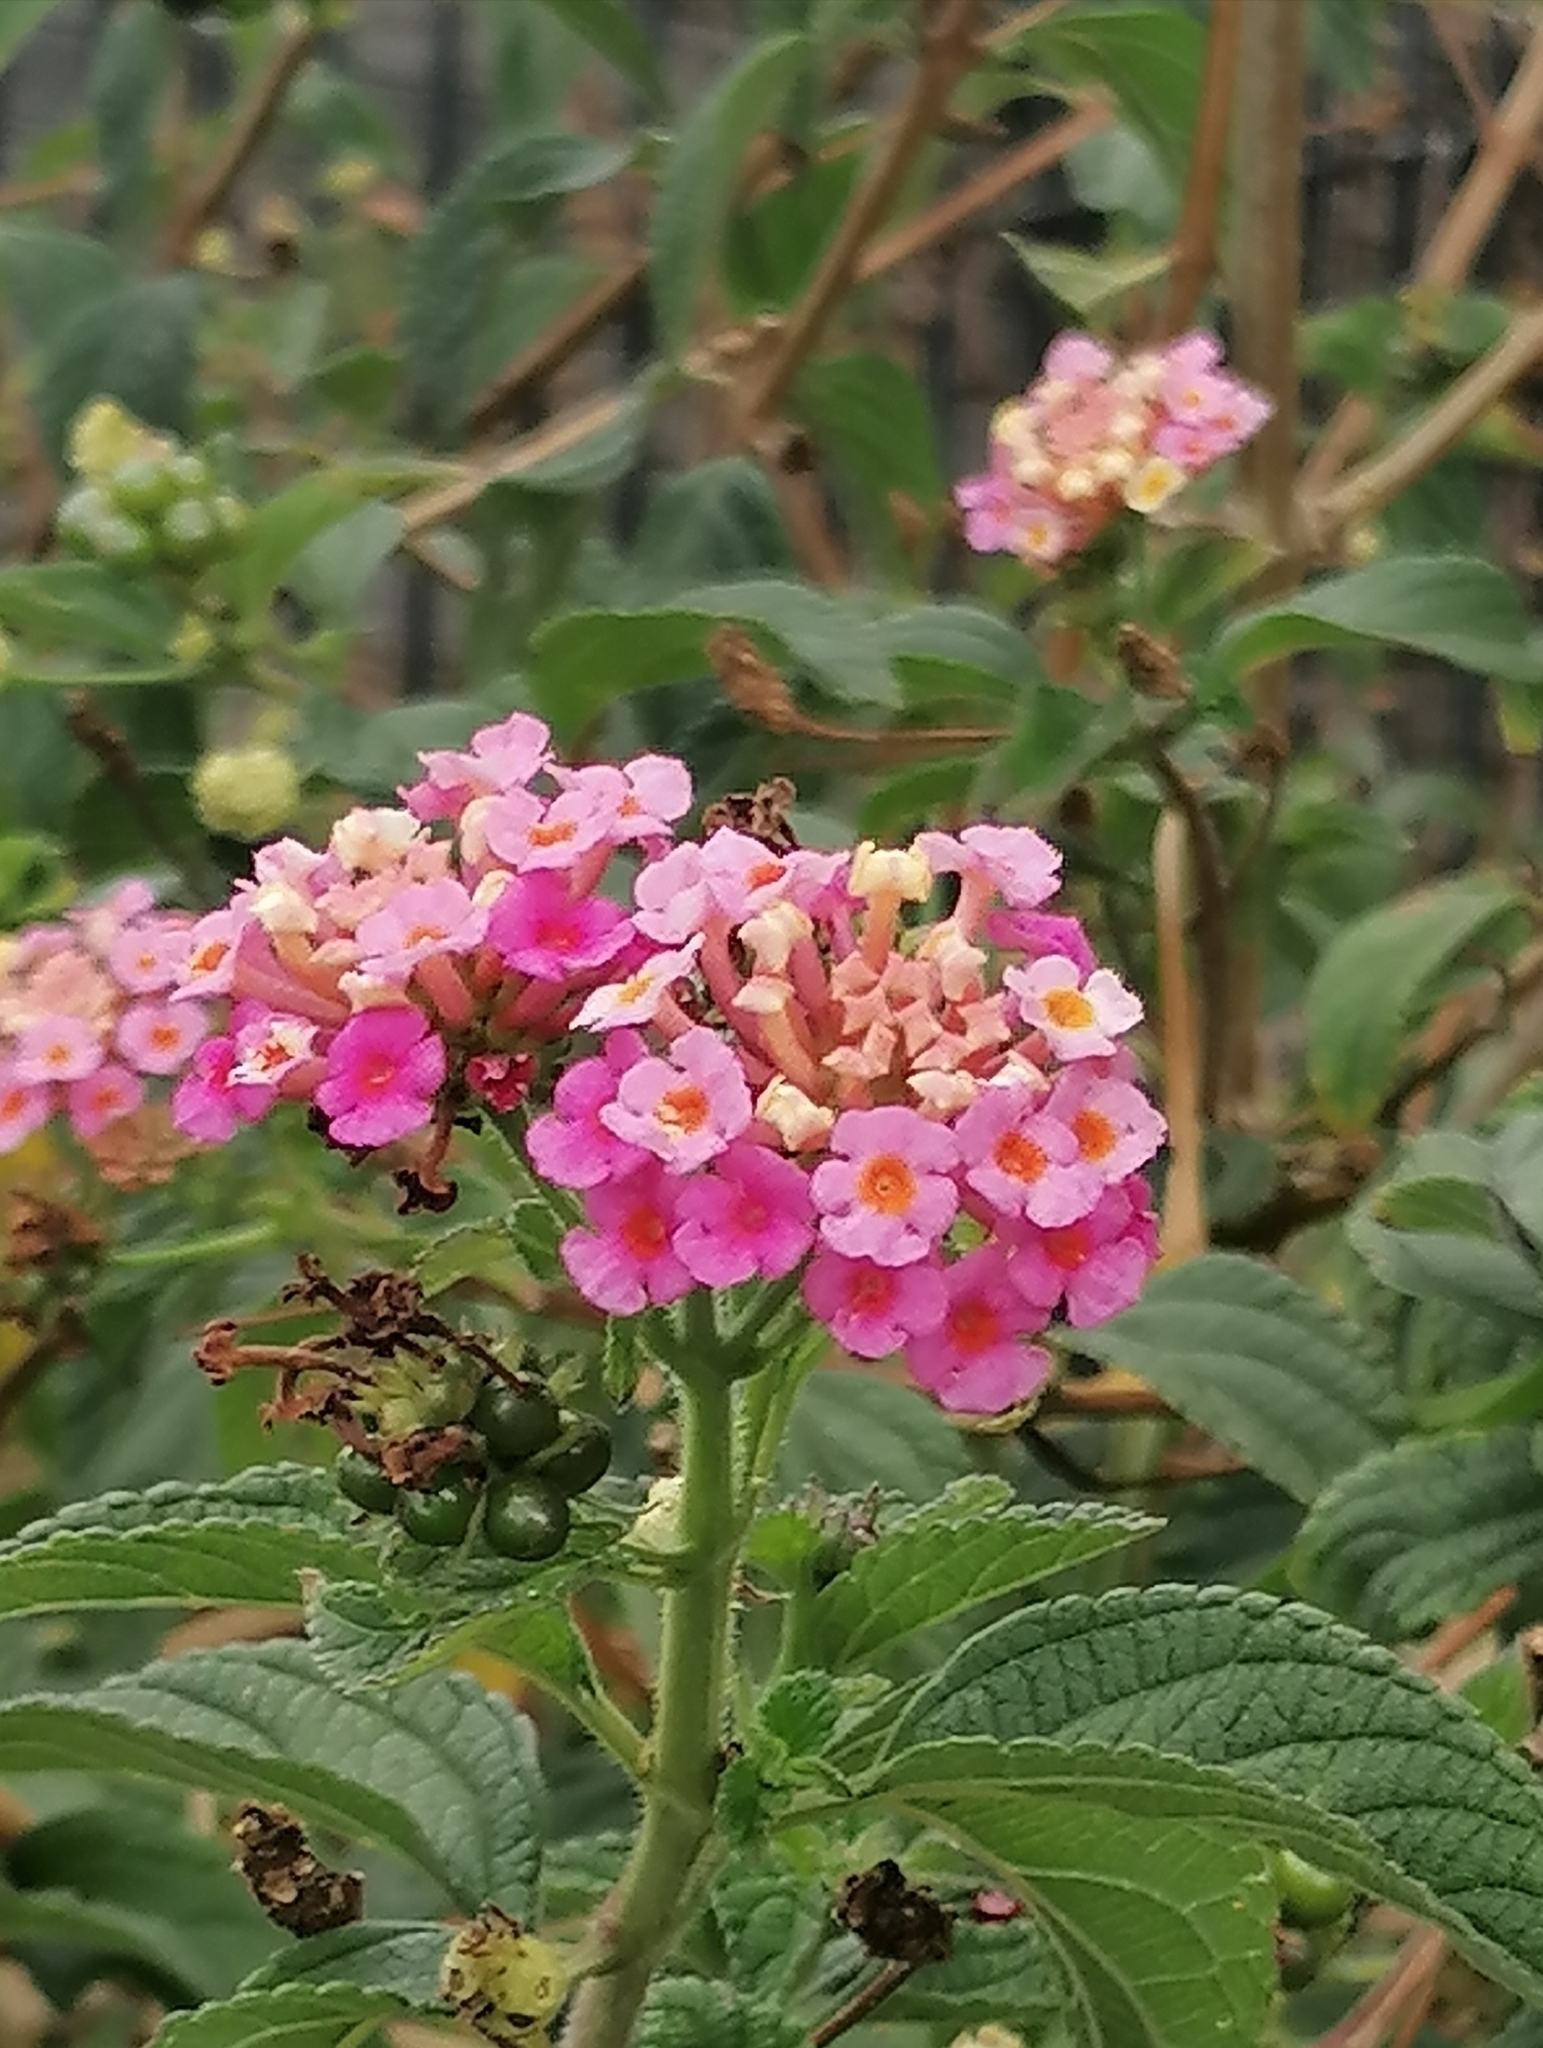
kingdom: Plantae
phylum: Tracheophyta
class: Magnoliopsida
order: Lamiales
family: Verbenaceae
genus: Lantana
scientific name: Lantana camara
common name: Lantana
